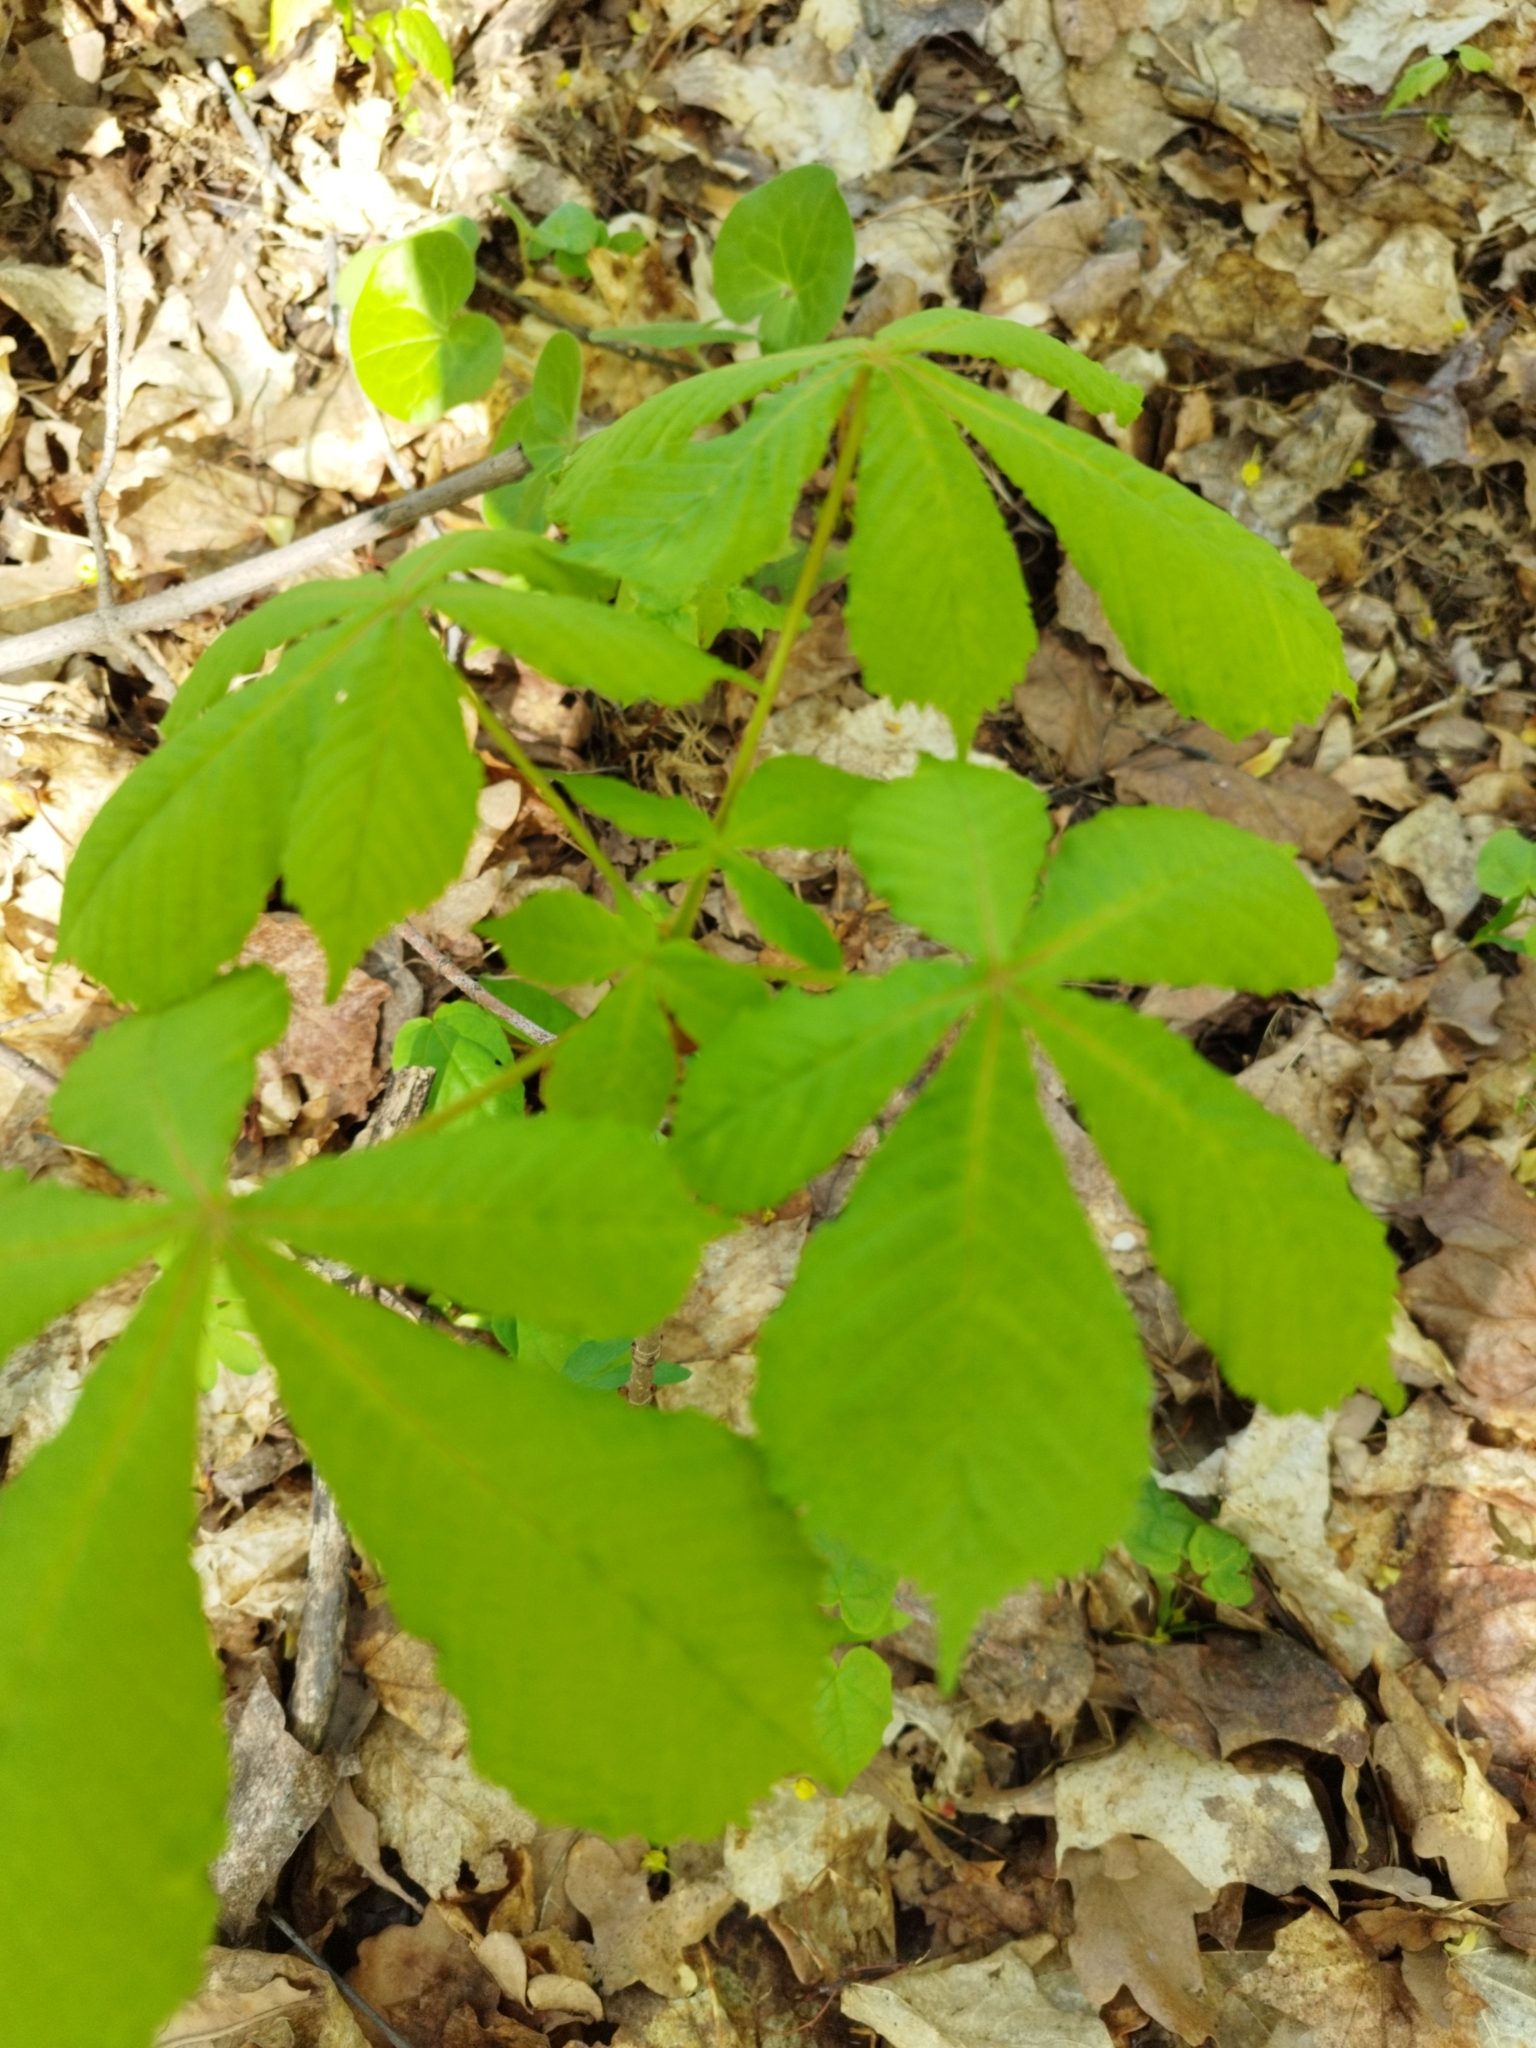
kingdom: Plantae
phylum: Tracheophyta
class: Magnoliopsida
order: Sapindales
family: Sapindaceae
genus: Aesculus
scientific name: Aesculus hippocastanum
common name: Horse-chestnut
